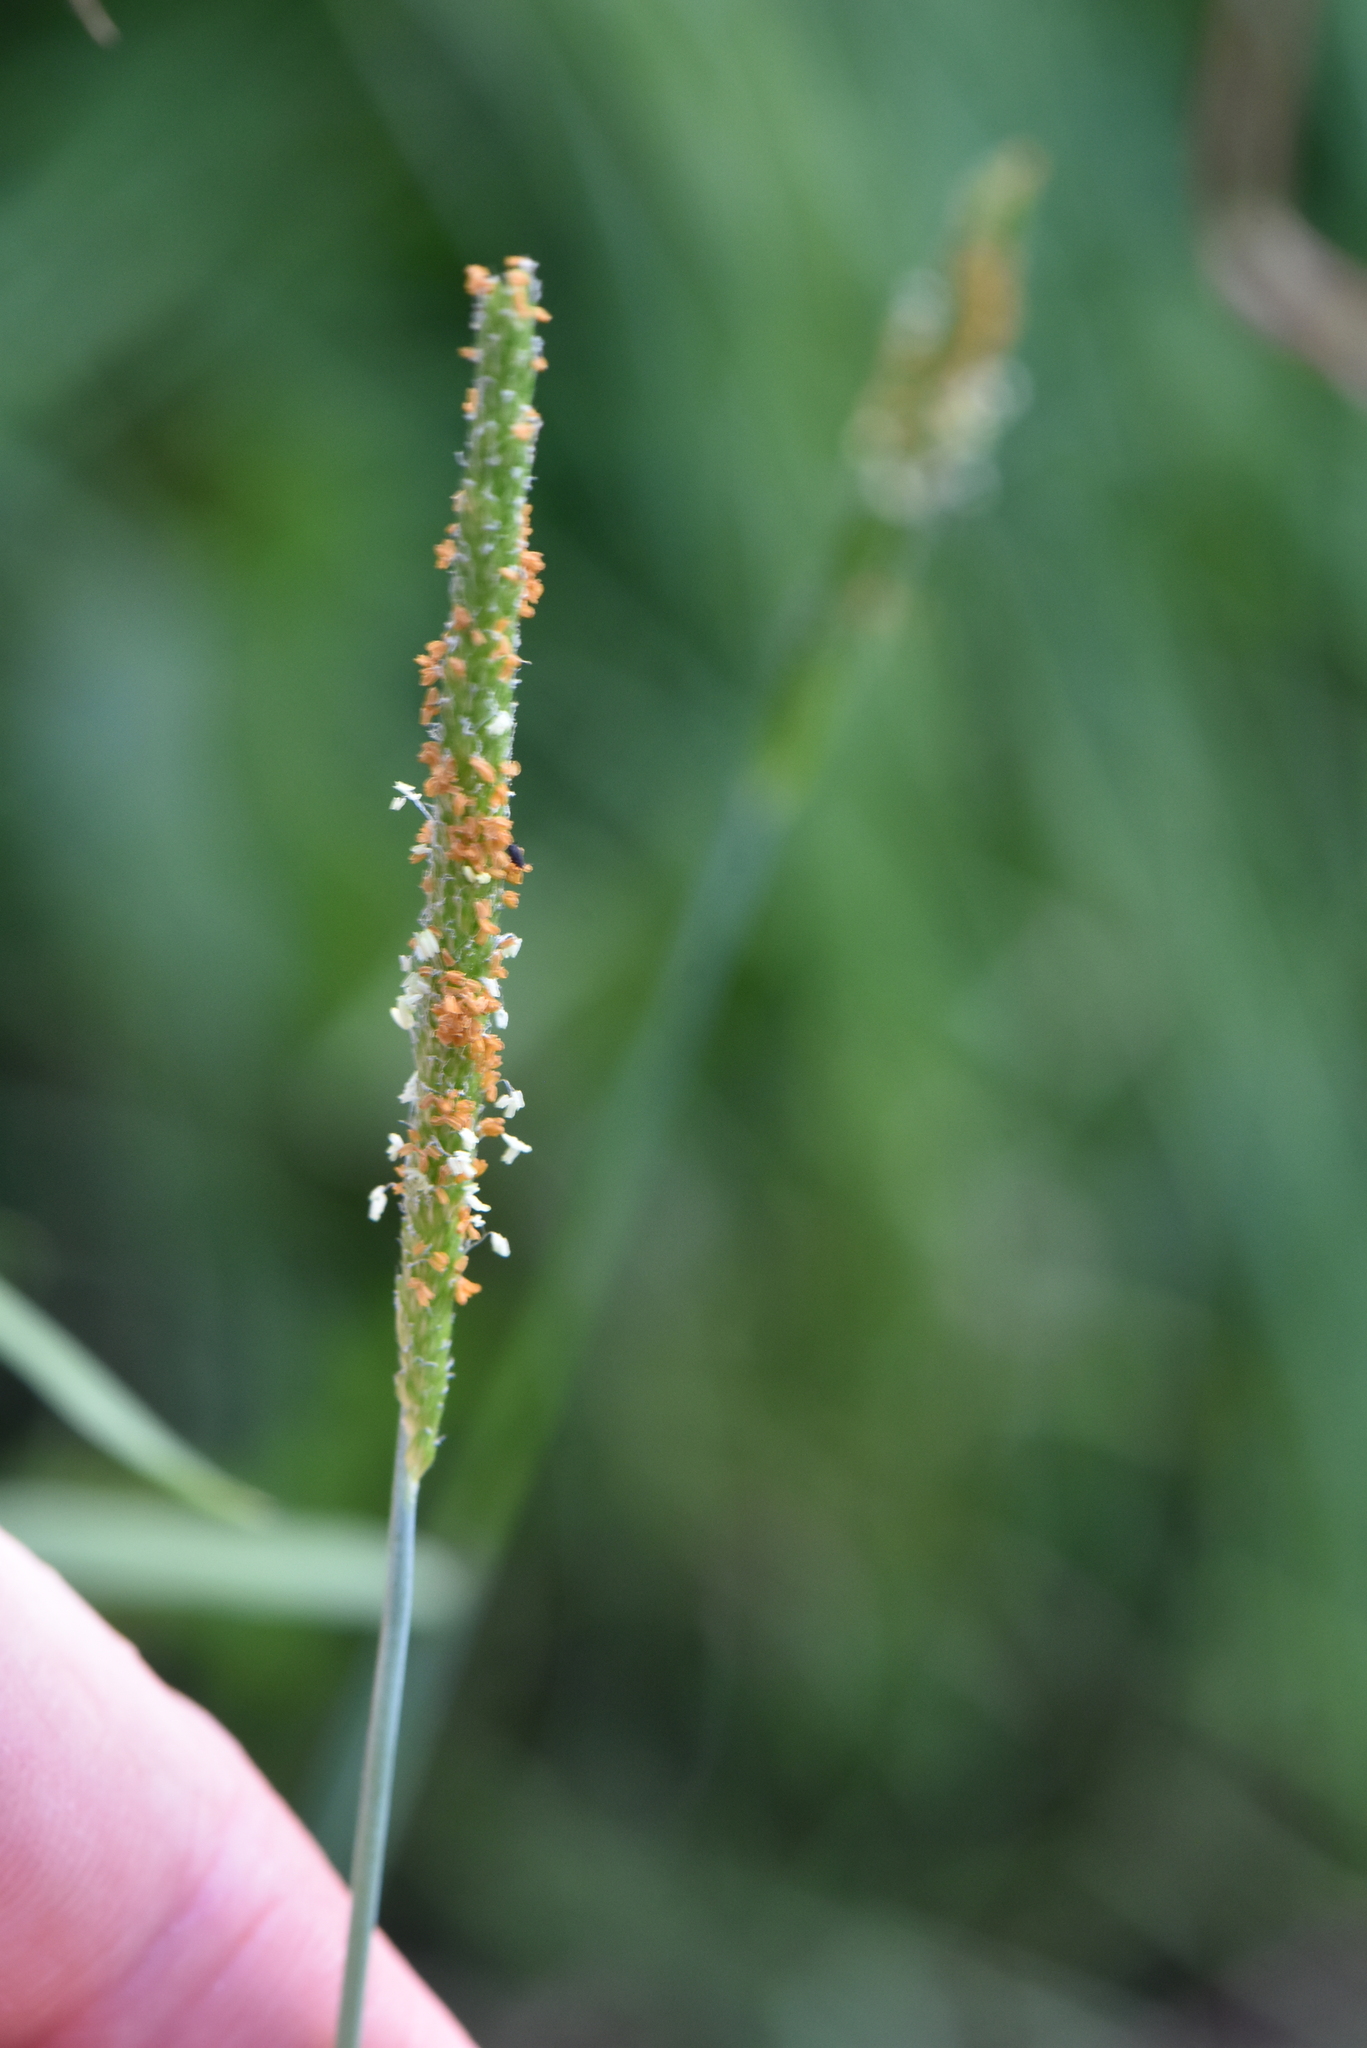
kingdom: Plantae
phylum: Tracheophyta
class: Liliopsida
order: Poales
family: Poaceae
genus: Alopecurus
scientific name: Alopecurus aequalis
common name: Orange foxtail
